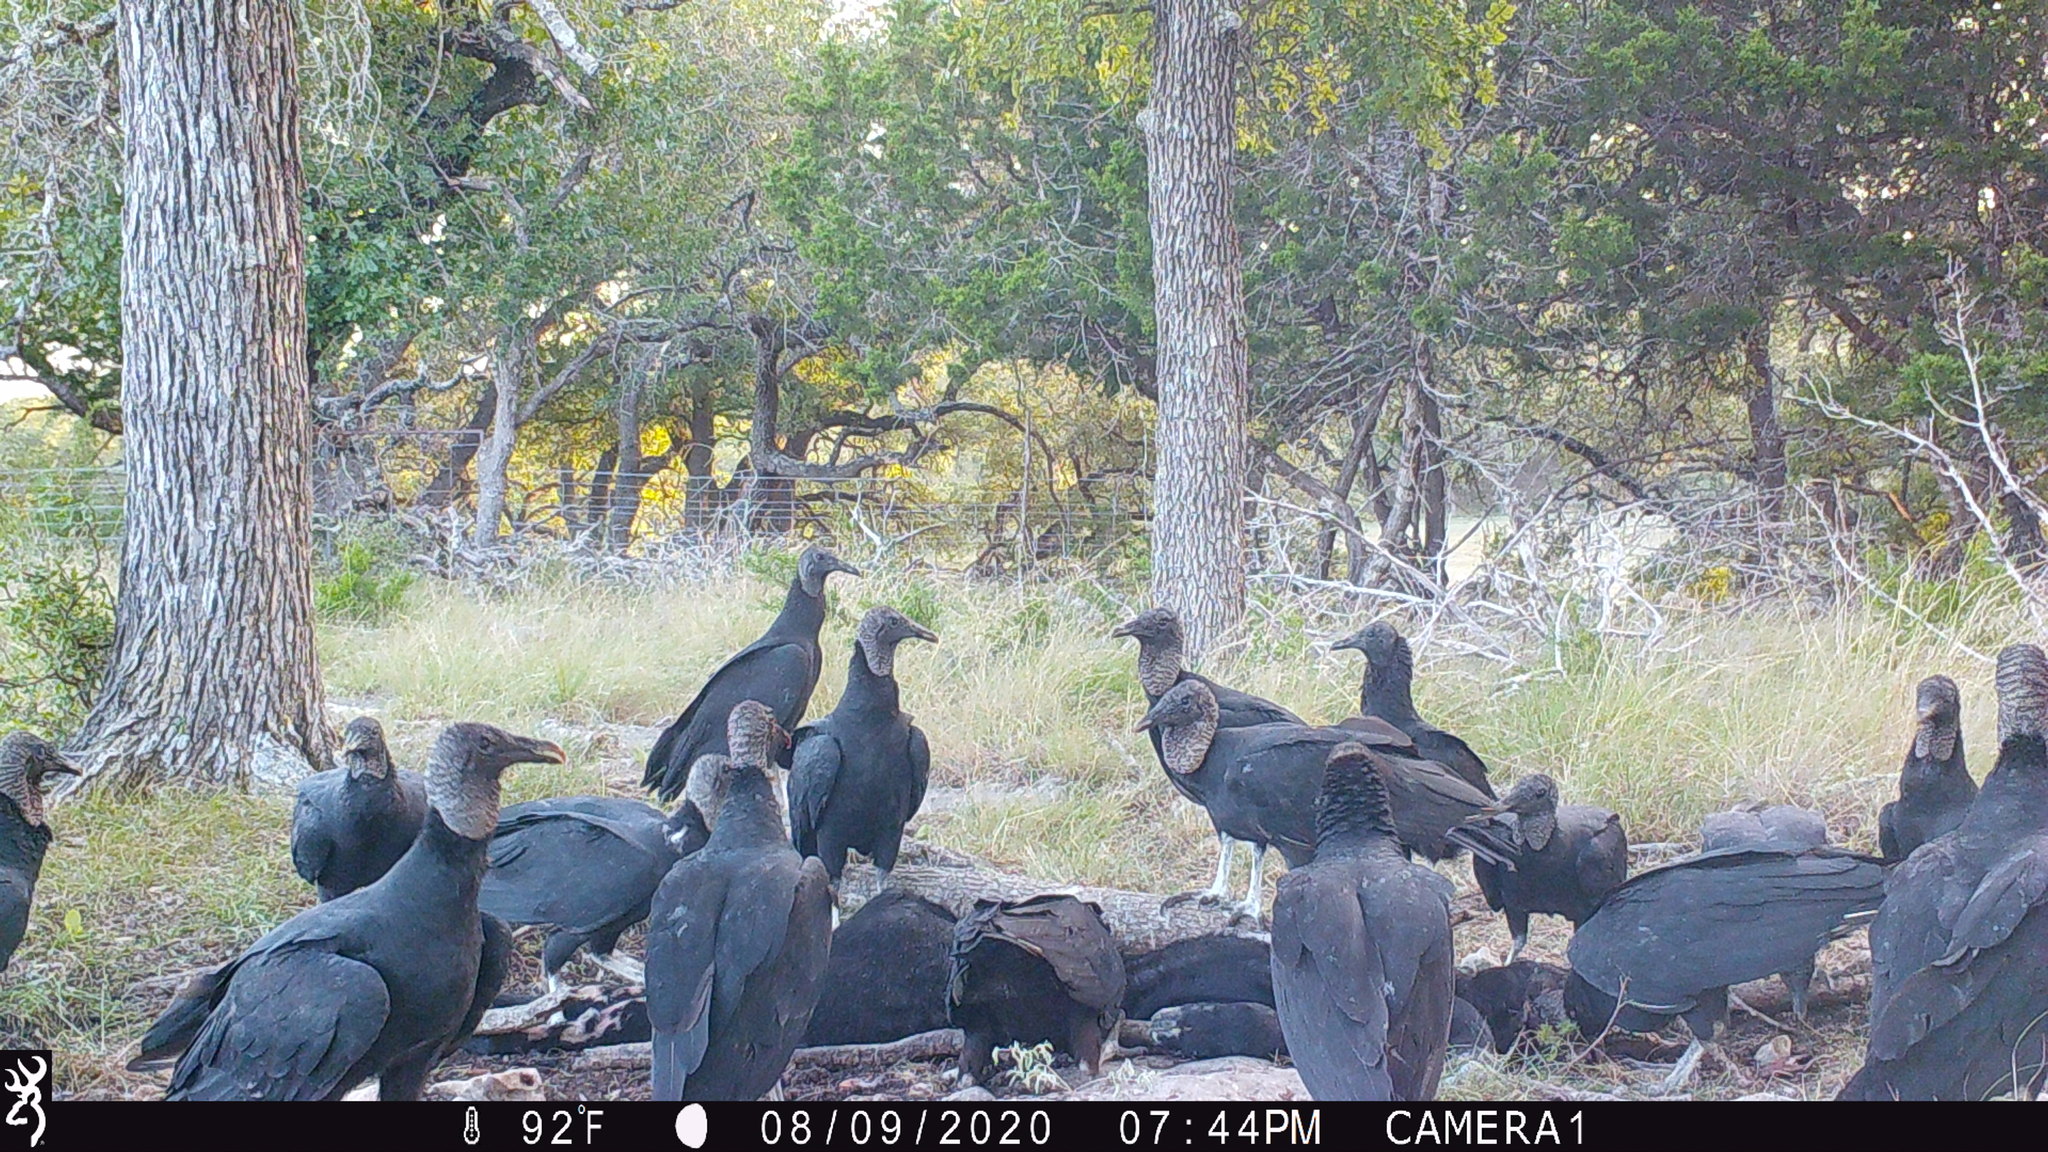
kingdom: Animalia
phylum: Chordata
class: Aves
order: Accipitriformes
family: Cathartidae
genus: Coragyps
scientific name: Coragyps atratus
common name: Black vulture
